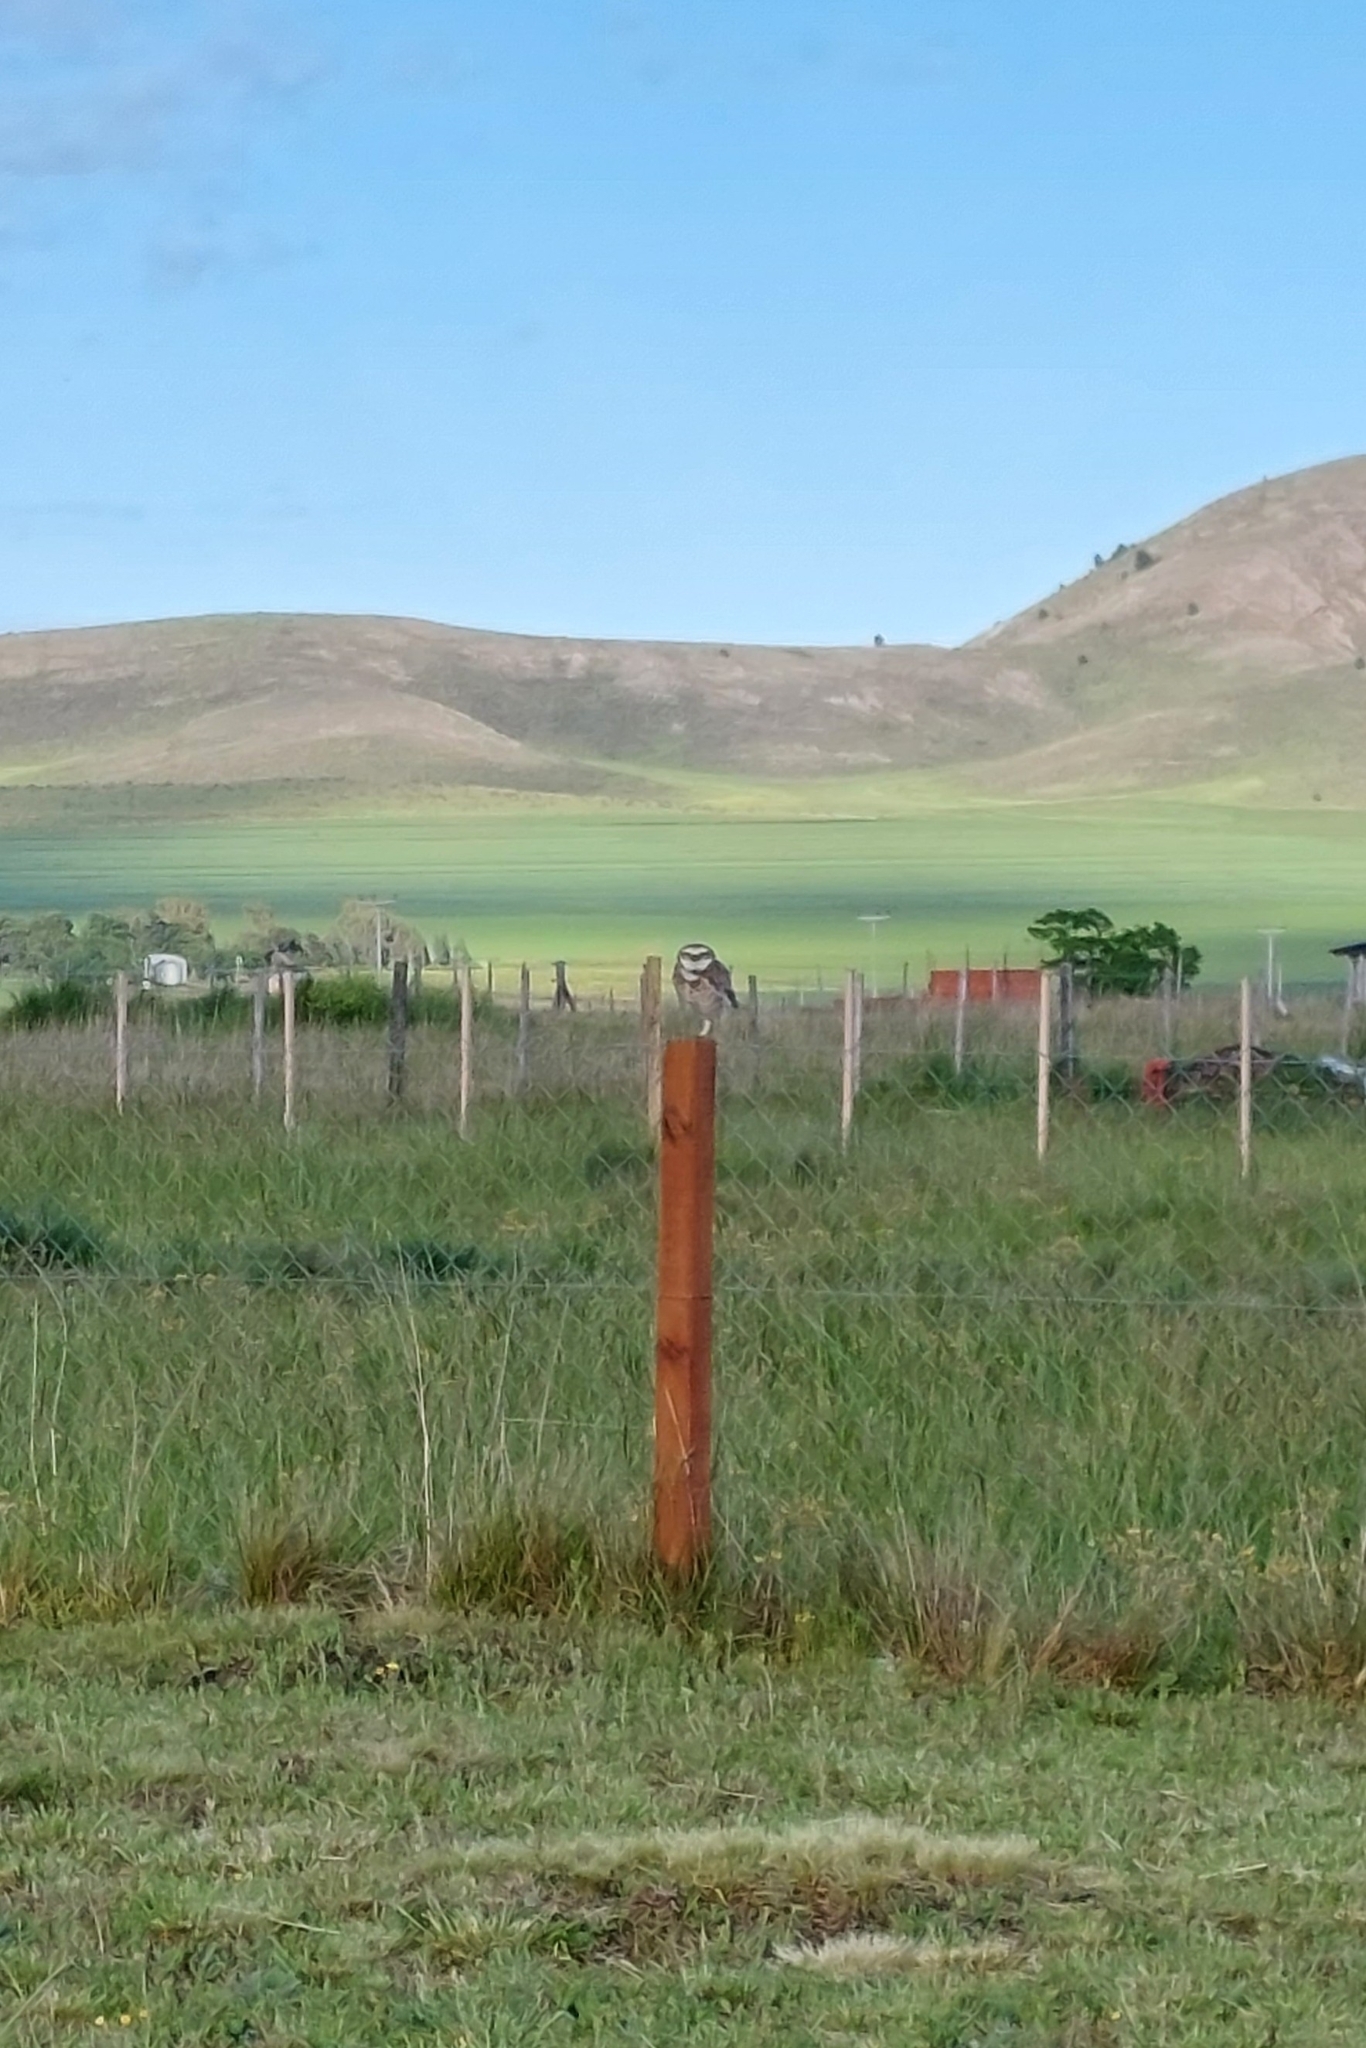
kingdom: Animalia
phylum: Chordata
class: Aves
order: Strigiformes
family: Strigidae
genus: Athene
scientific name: Athene cunicularia
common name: Burrowing owl
